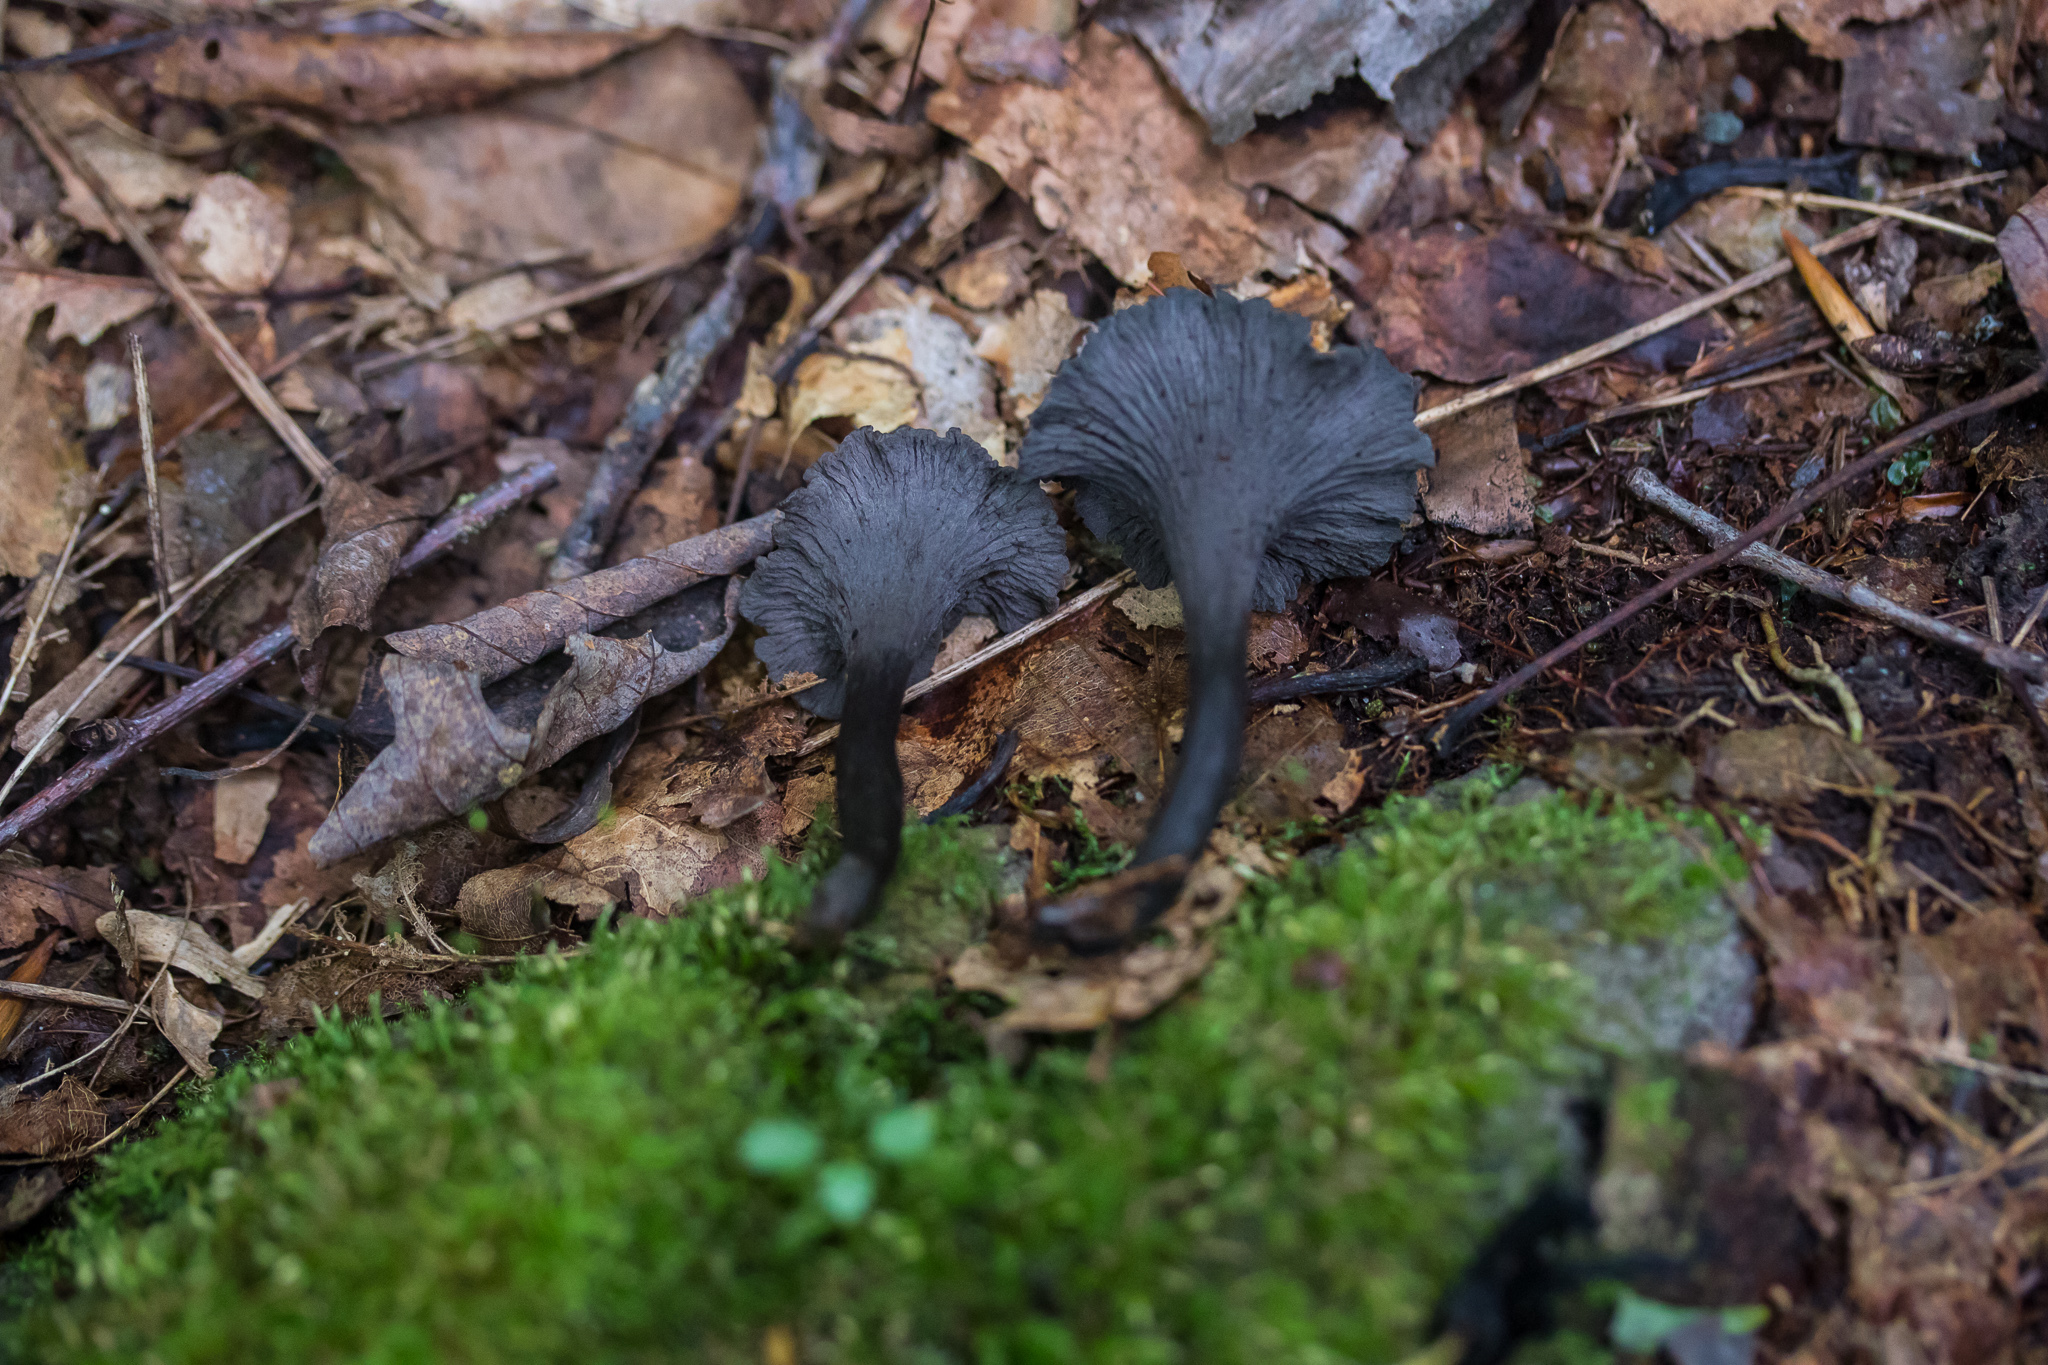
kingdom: Fungi
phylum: Basidiomycota
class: Agaricomycetes
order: Cantharellales
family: Hydnaceae
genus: Craterellus
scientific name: Craterellus venosus
